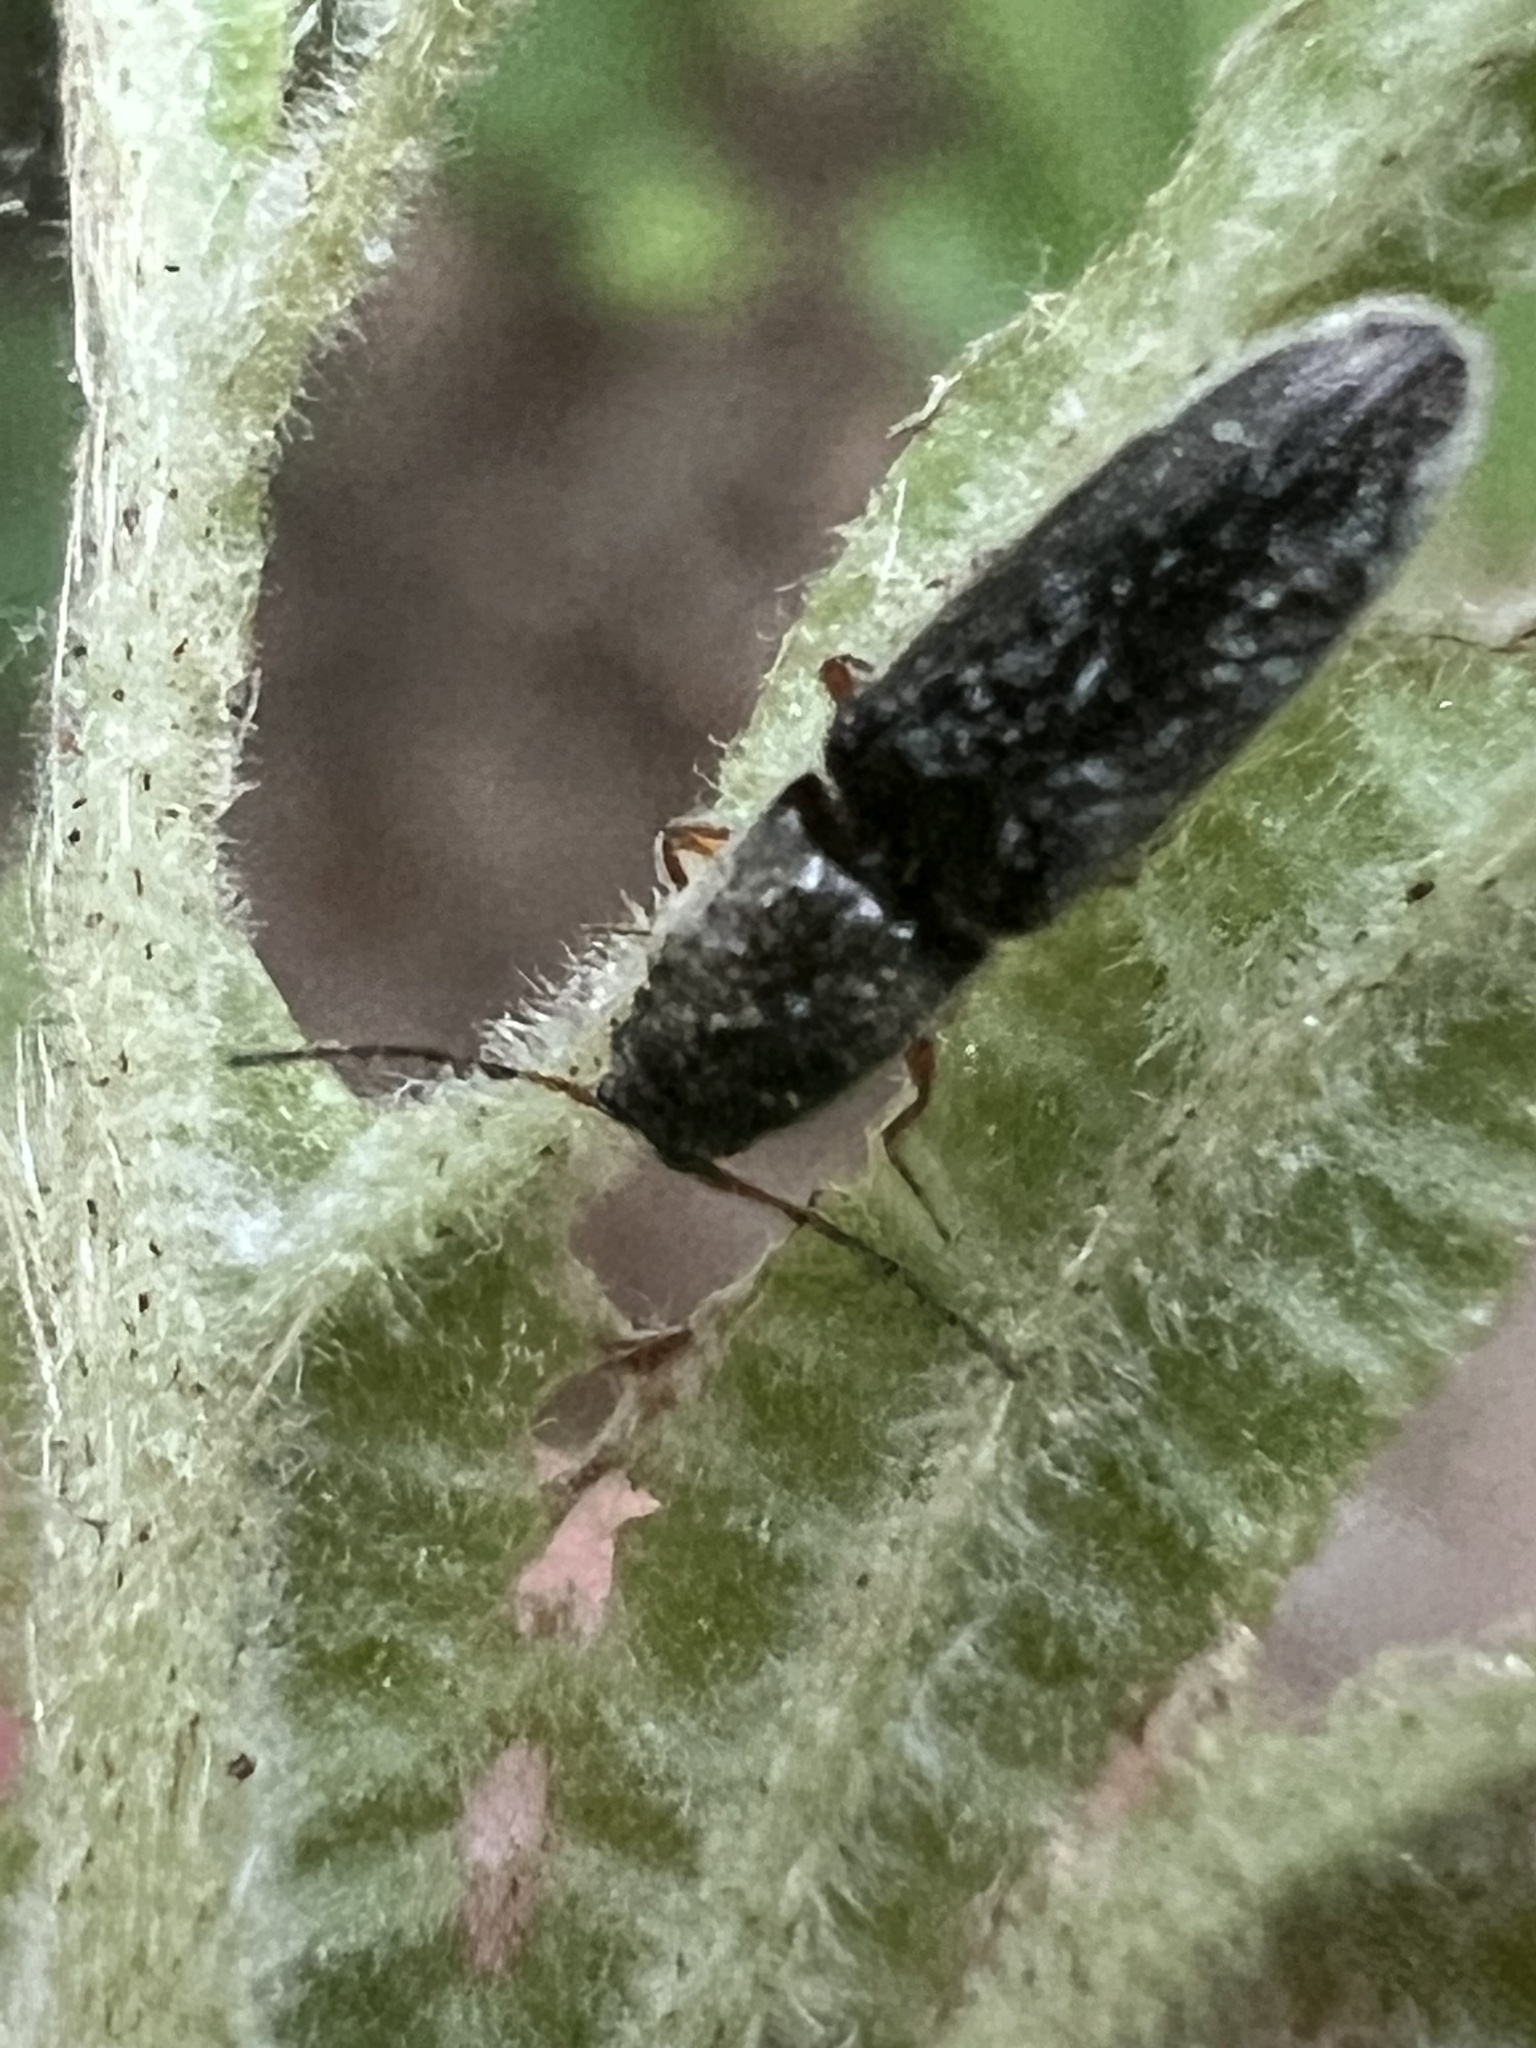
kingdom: Animalia
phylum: Arthropoda
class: Insecta
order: Coleoptera
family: Elateridae
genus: Limonius
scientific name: Limonius quercinus
